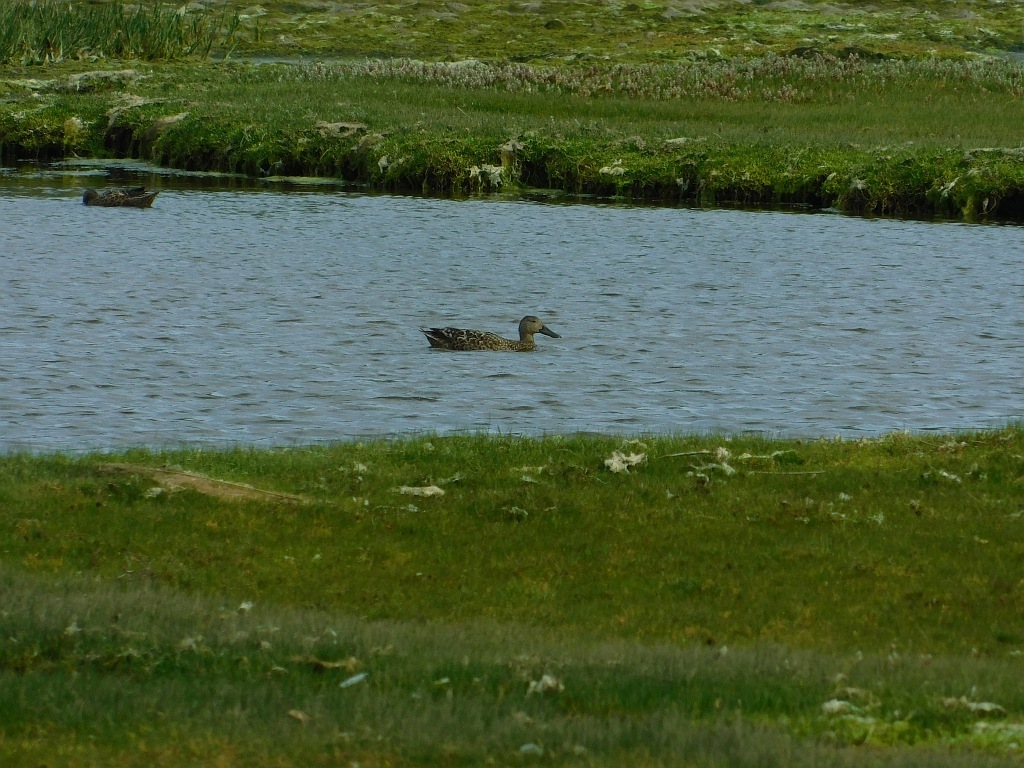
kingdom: Animalia
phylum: Chordata
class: Aves
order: Anseriformes
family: Anatidae
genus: Anas
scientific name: Anas platyrhynchos
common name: Mallard
